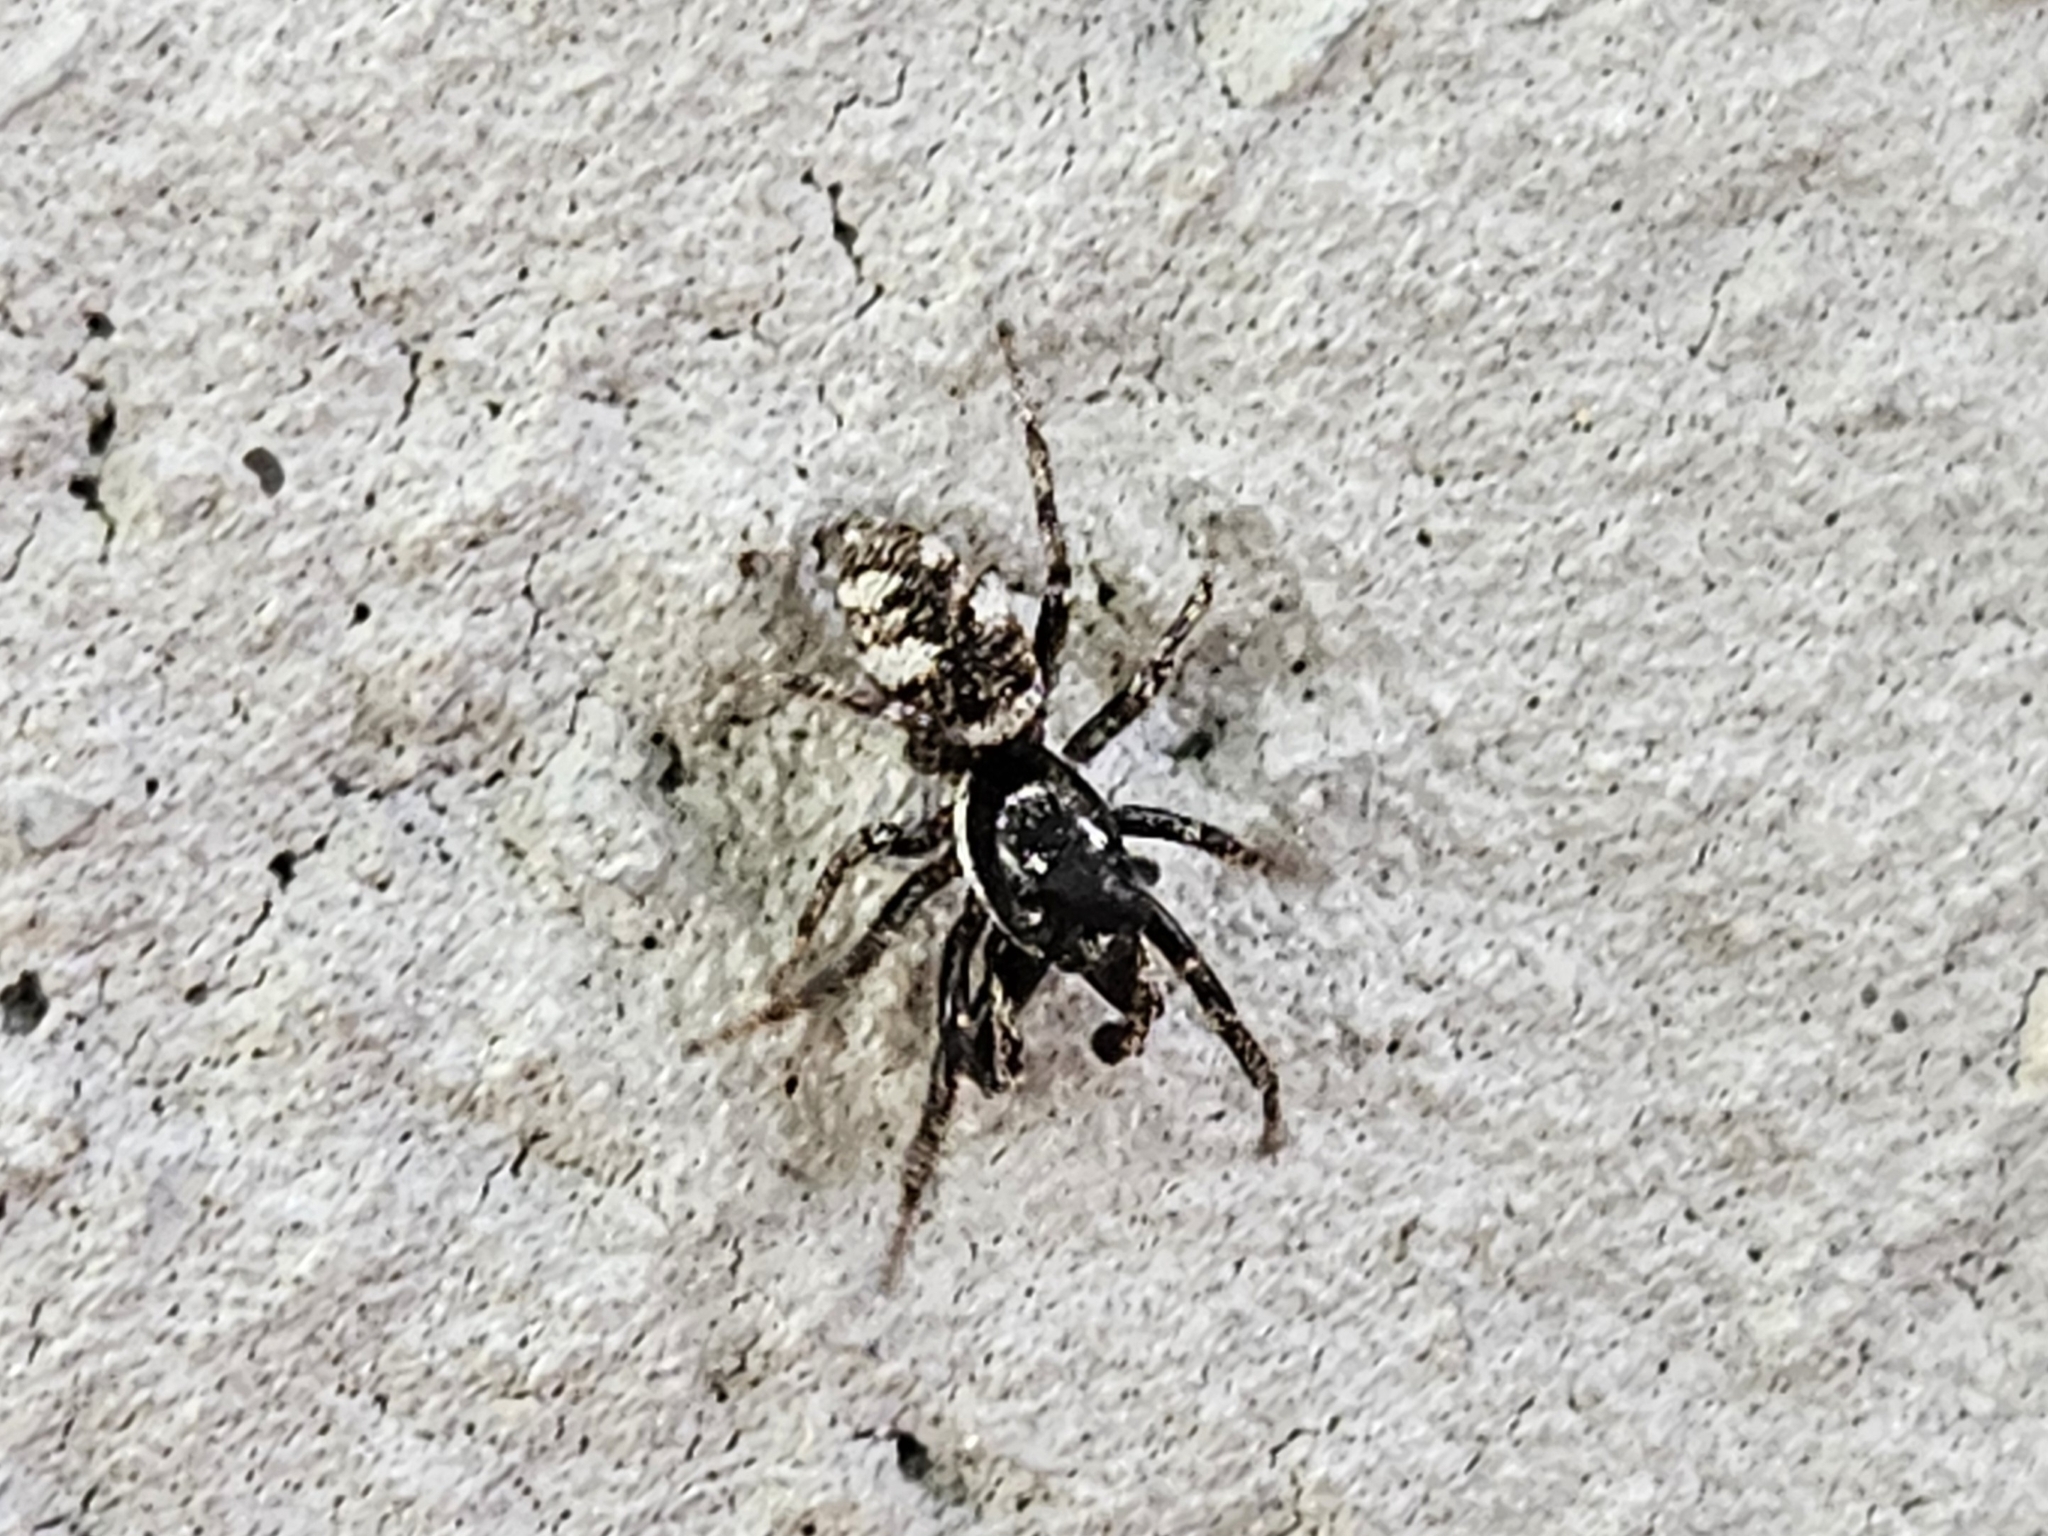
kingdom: Animalia
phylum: Arthropoda
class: Arachnida
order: Araneae
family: Salticidae
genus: Salticus
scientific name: Salticus scenicus
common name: Zebra jumper
